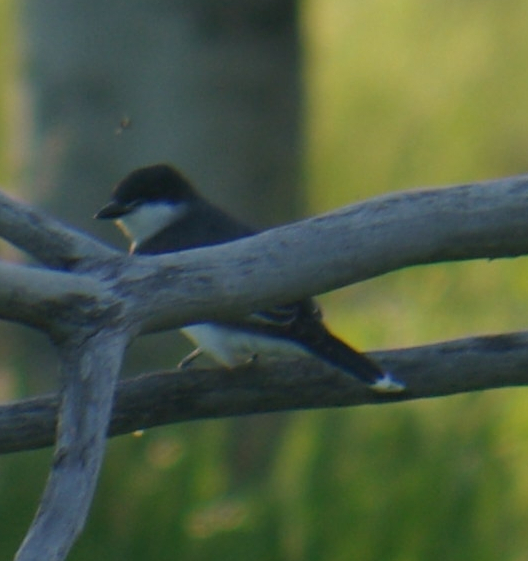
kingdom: Animalia
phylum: Chordata
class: Aves
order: Passeriformes
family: Tyrannidae
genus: Tyrannus
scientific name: Tyrannus tyrannus
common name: Eastern kingbird
